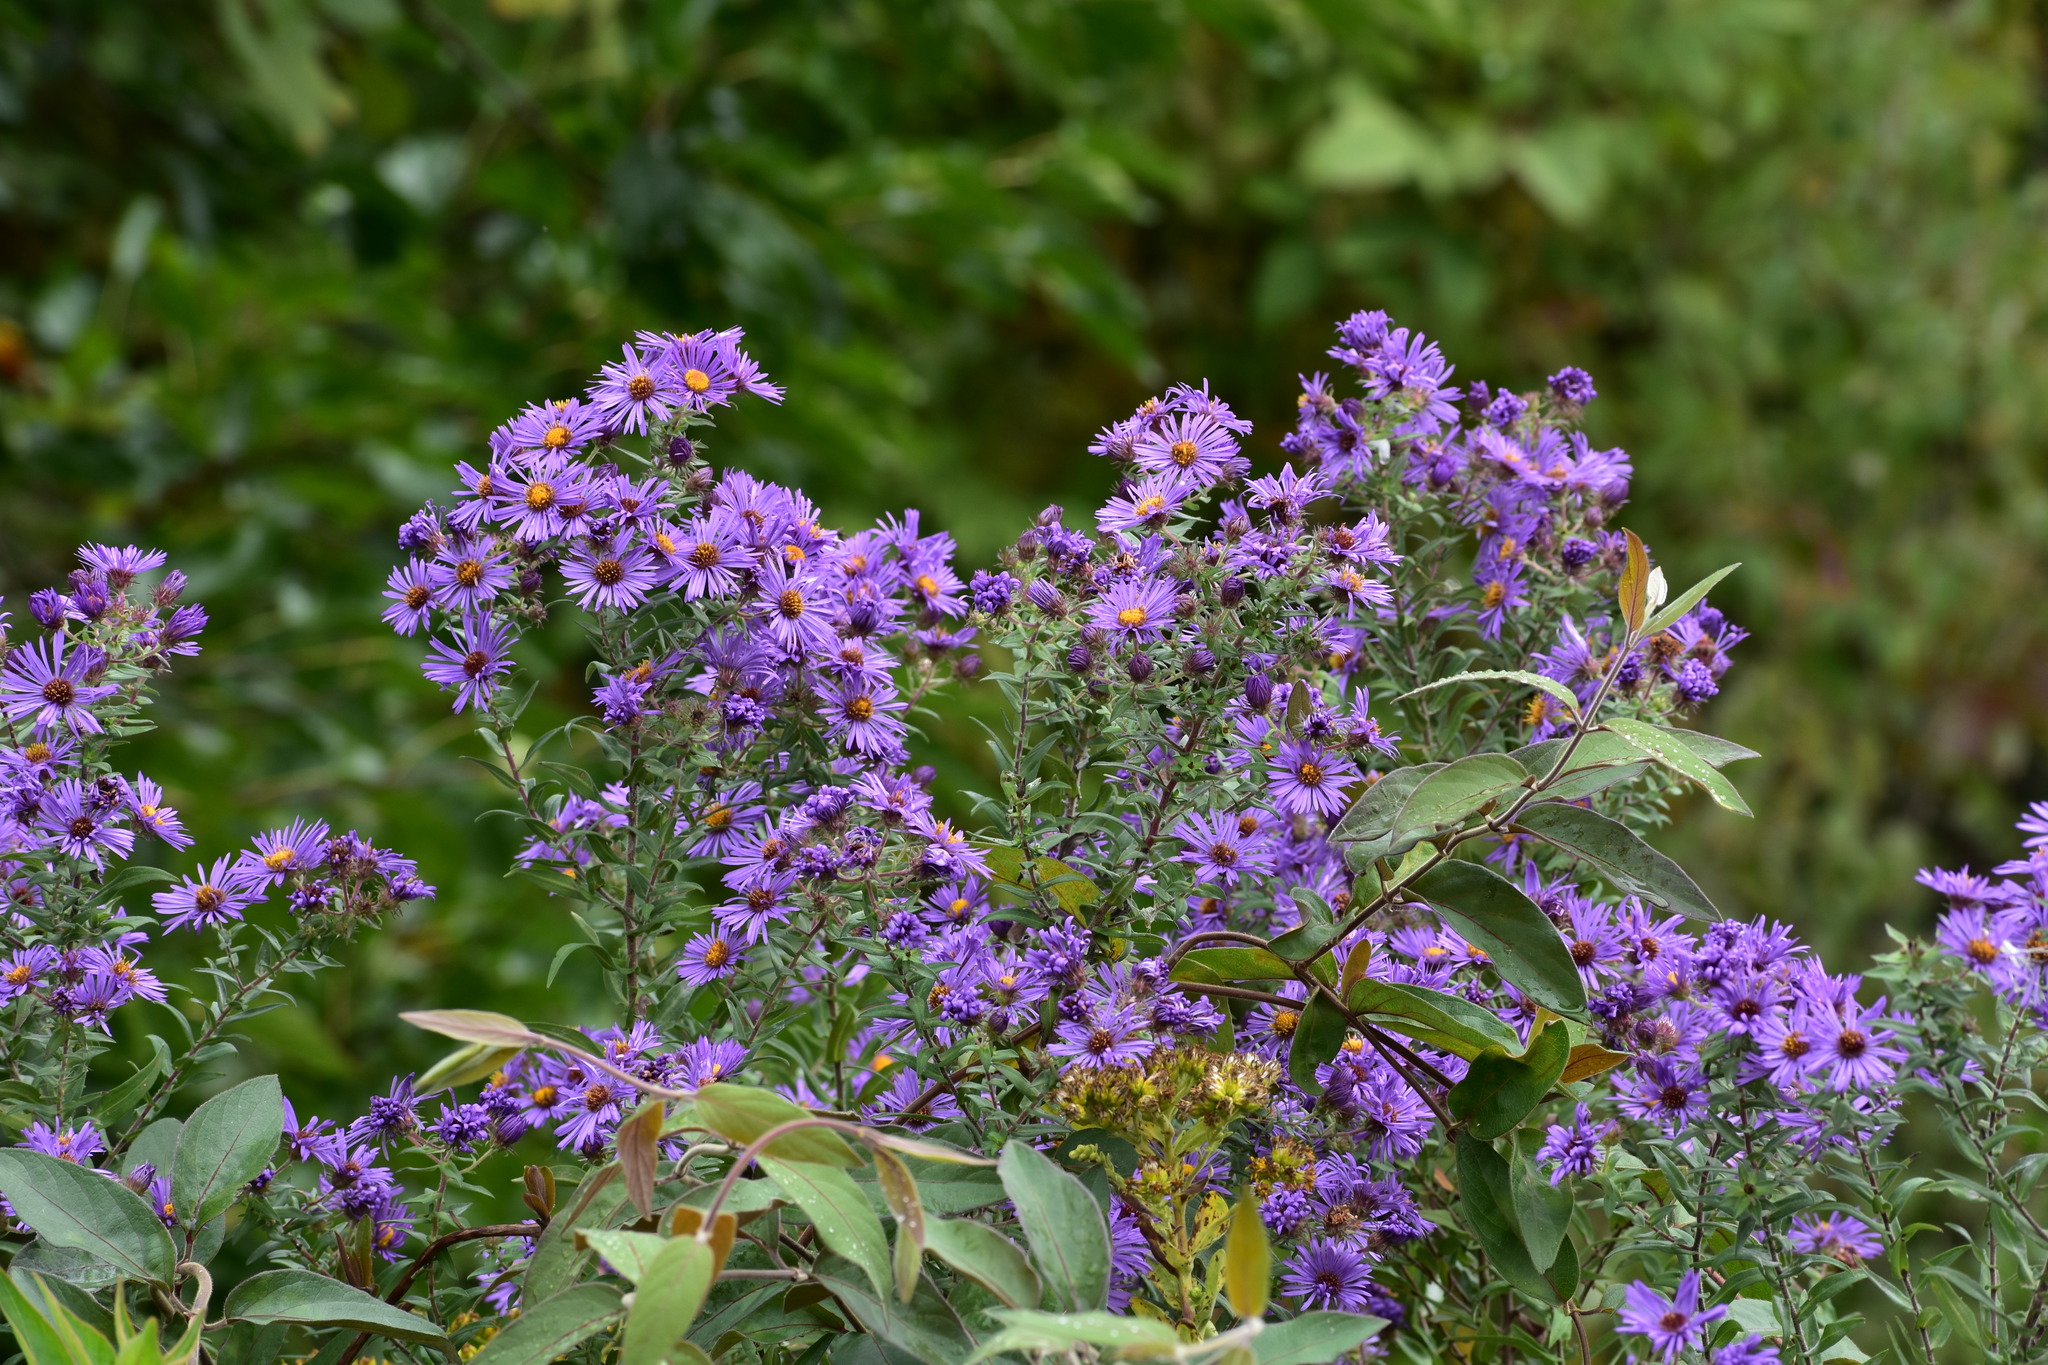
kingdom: Plantae
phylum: Tracheophyta
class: Magnoliopsida
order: Asterales
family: Asteraceae
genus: Symphyotrichum
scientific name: Symphyotrichum novae-angliae
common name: Michaelmas daisy
